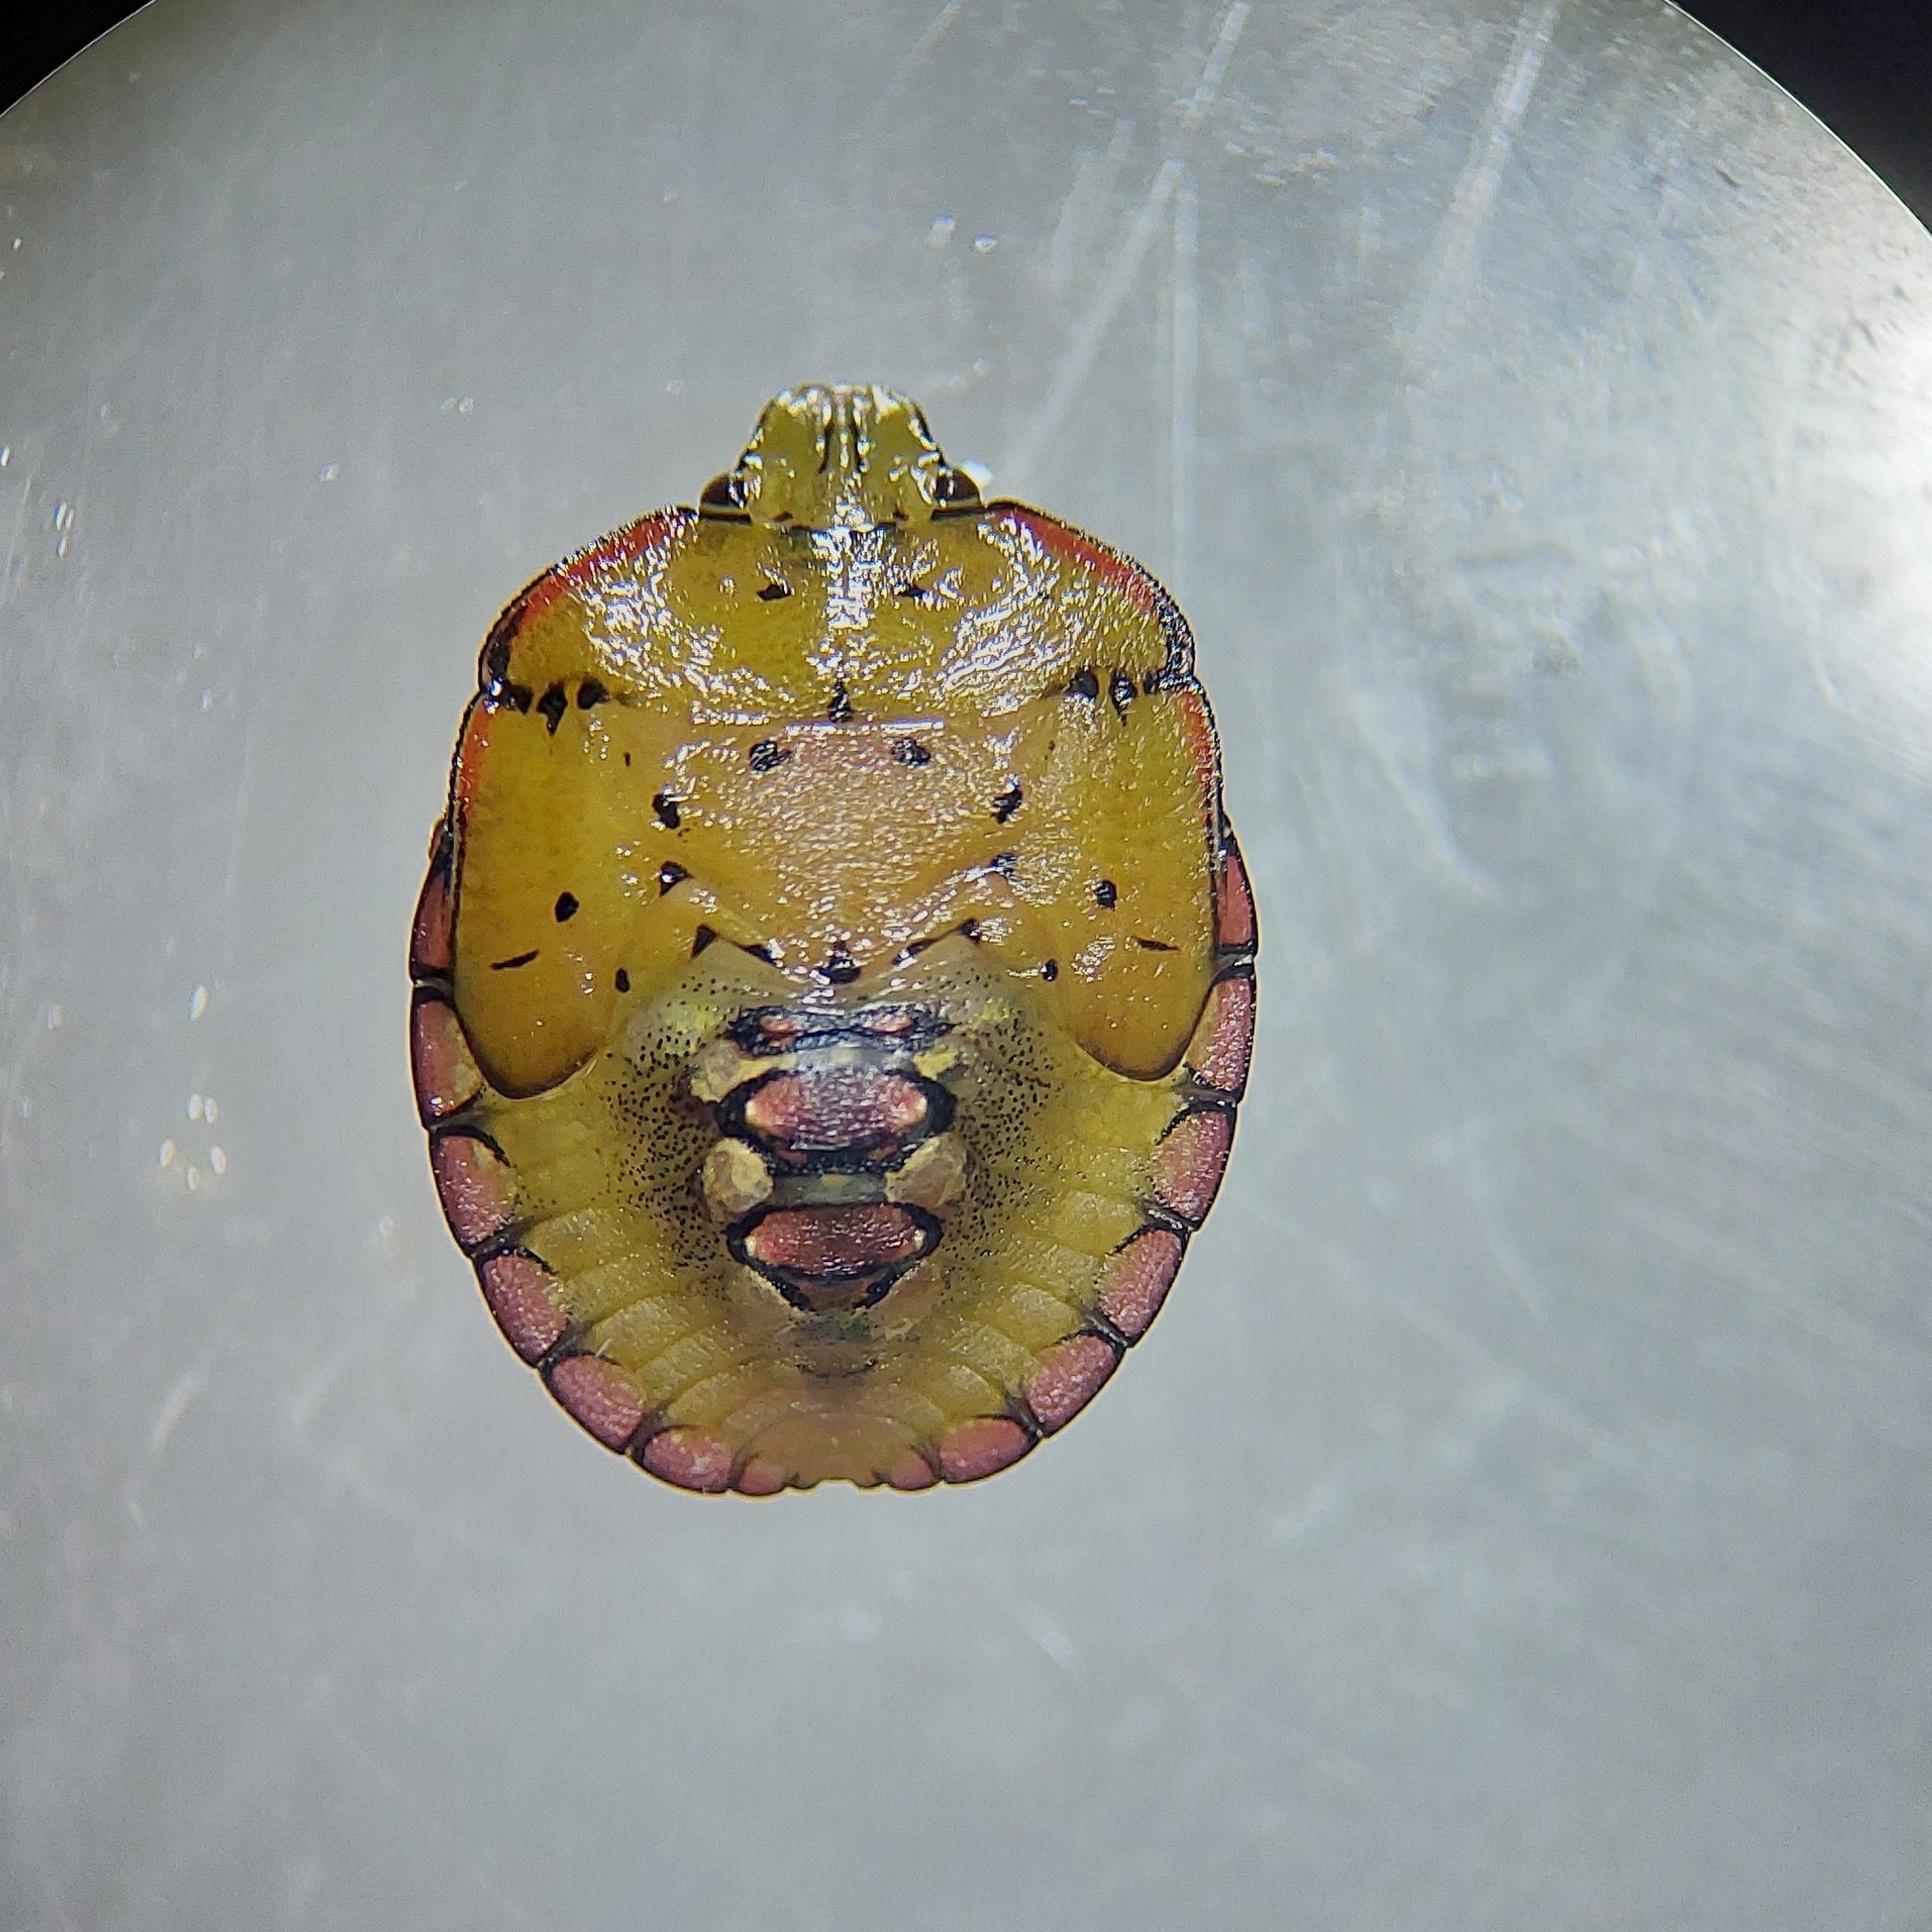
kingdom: Animalia
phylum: Arthropoda
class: Insecta
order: Hemiptera
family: Pentatomidae
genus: Nezara
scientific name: Nezara viridula
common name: Southern green stink bug
